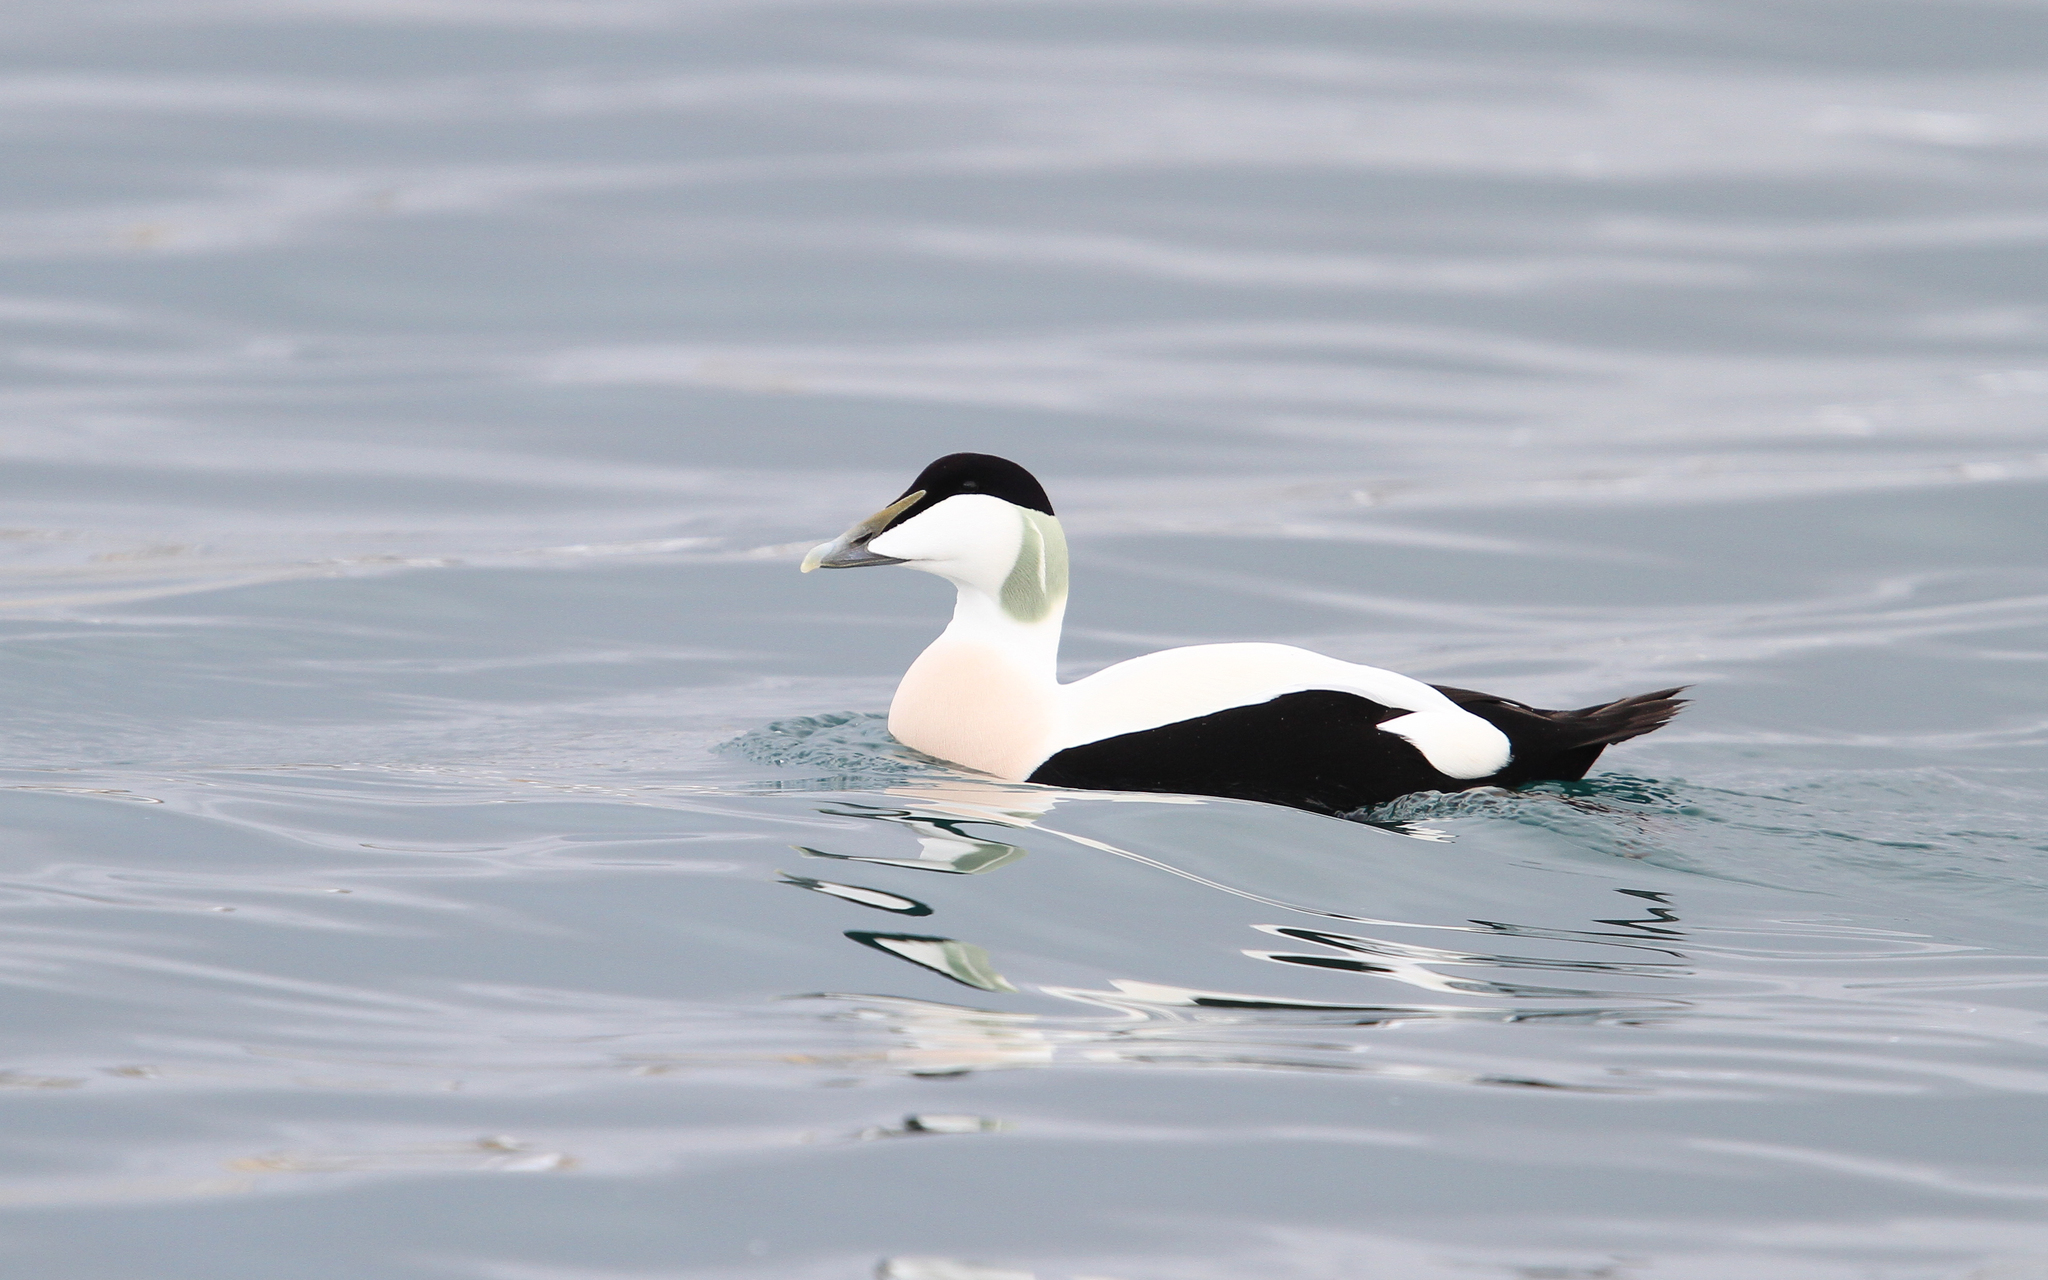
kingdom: Animalia
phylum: Chordata
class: Aves
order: Anseriformes
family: Anatidae
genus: Somateria
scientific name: Somateria mollissima
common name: Common eider
